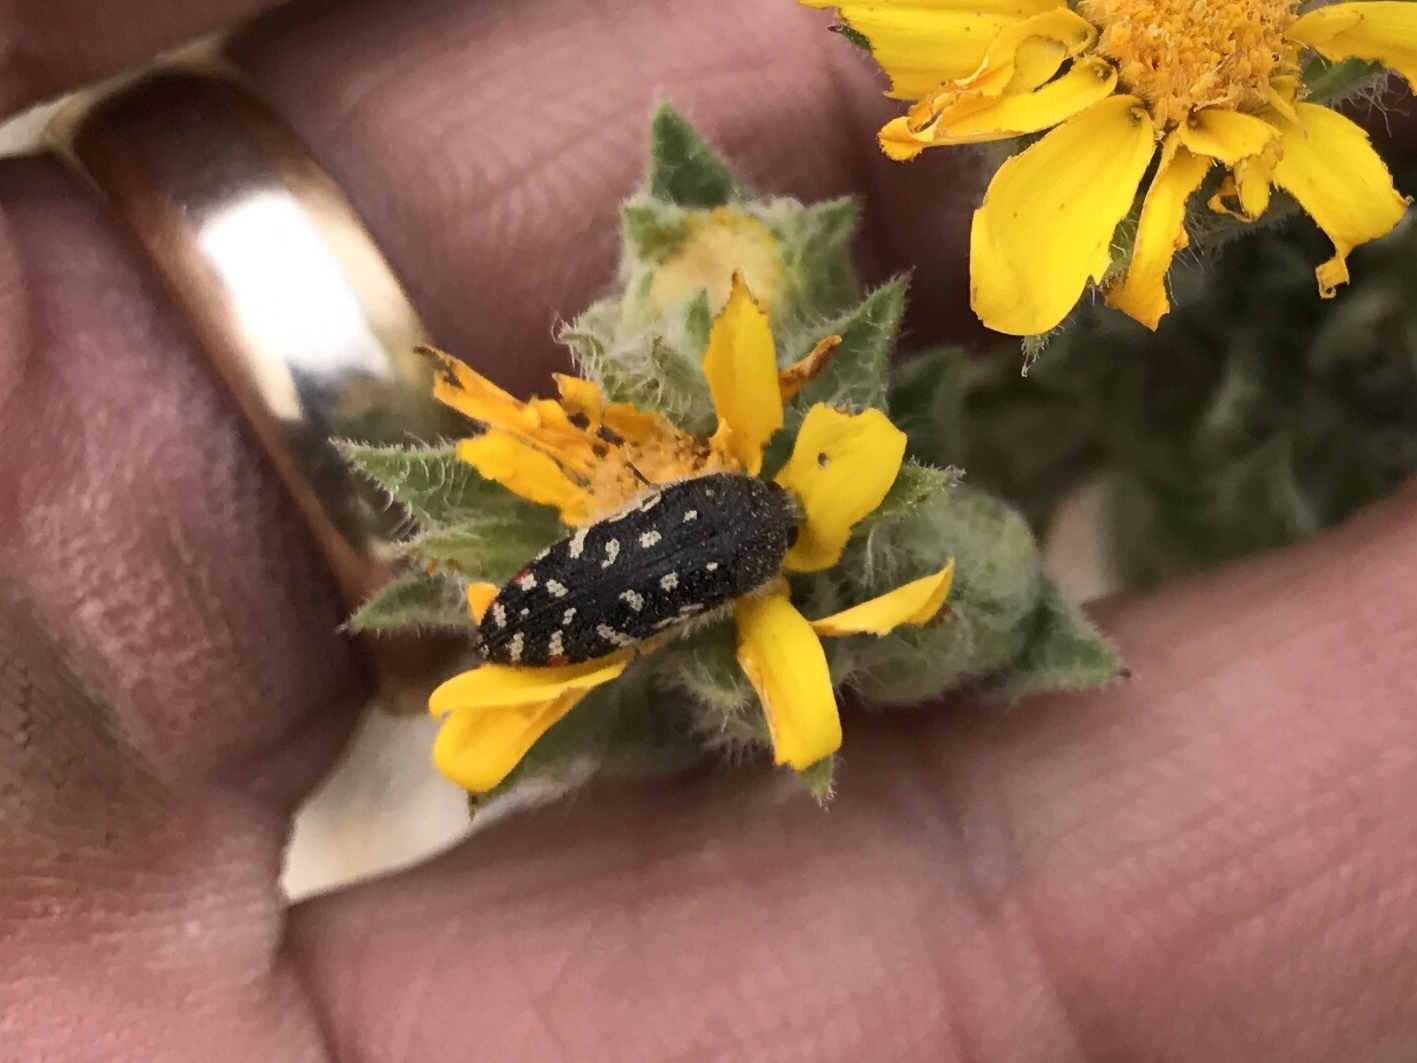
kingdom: Animalia
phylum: Arthropoda
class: Insecta
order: Coleoptera
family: Buprestidae
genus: Acmaeodera
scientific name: Acmaeodera rubronotata
